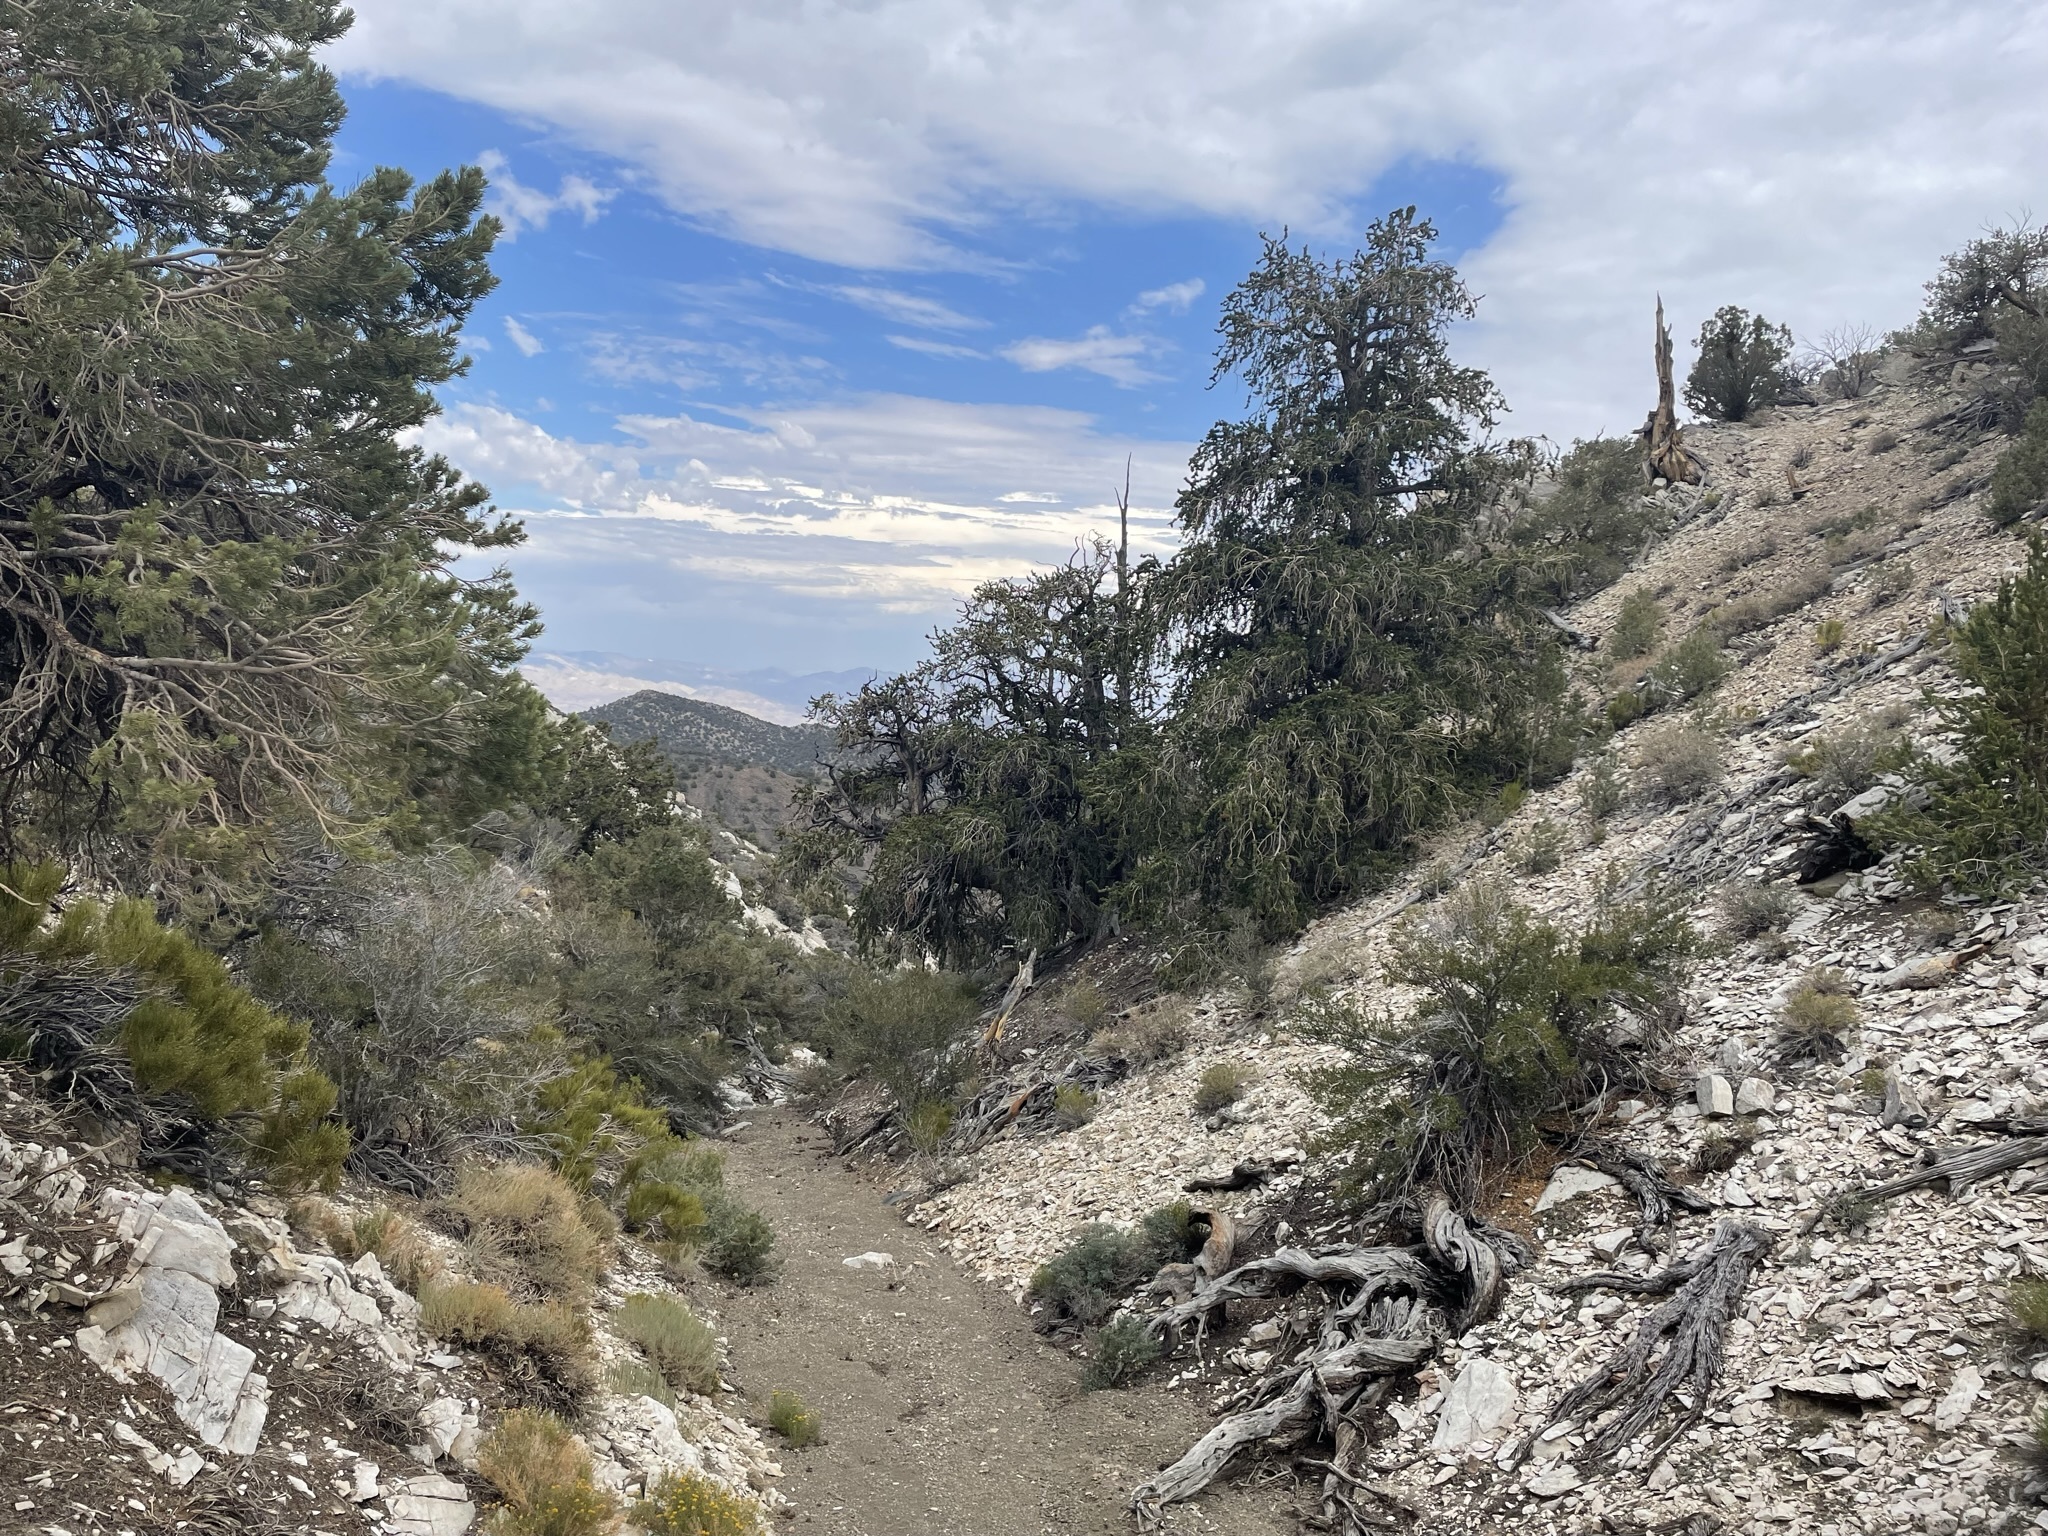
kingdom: Plantae
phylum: Tracheophyta
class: Pinopsida
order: Pinales
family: Pinaceae
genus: Pinus
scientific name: Pinus longaeva
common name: Intermountain bristlecone pine
